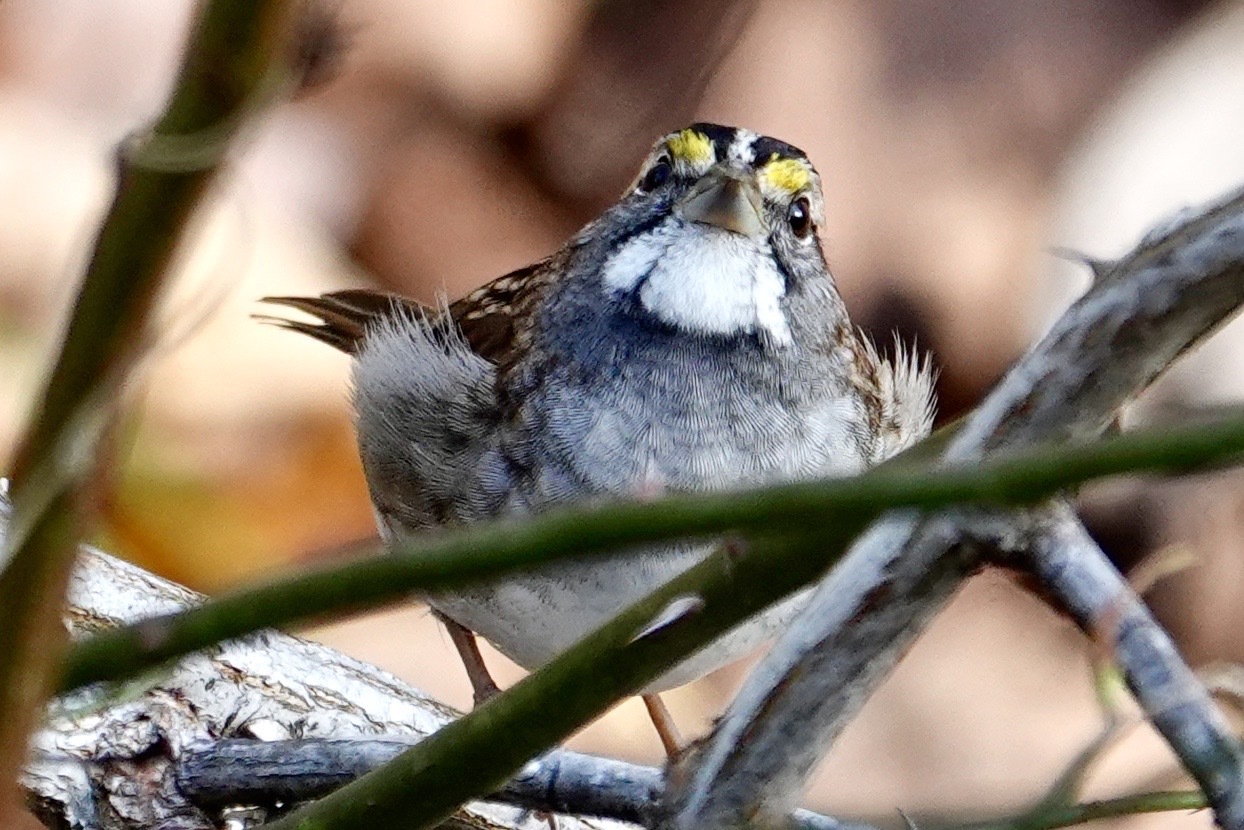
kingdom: Animalia
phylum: Chordata
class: Aves
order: Passeriformes
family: Passerellidae
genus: Zonotrichia
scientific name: Zonotrichia albicollis
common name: White-throated sparrow
